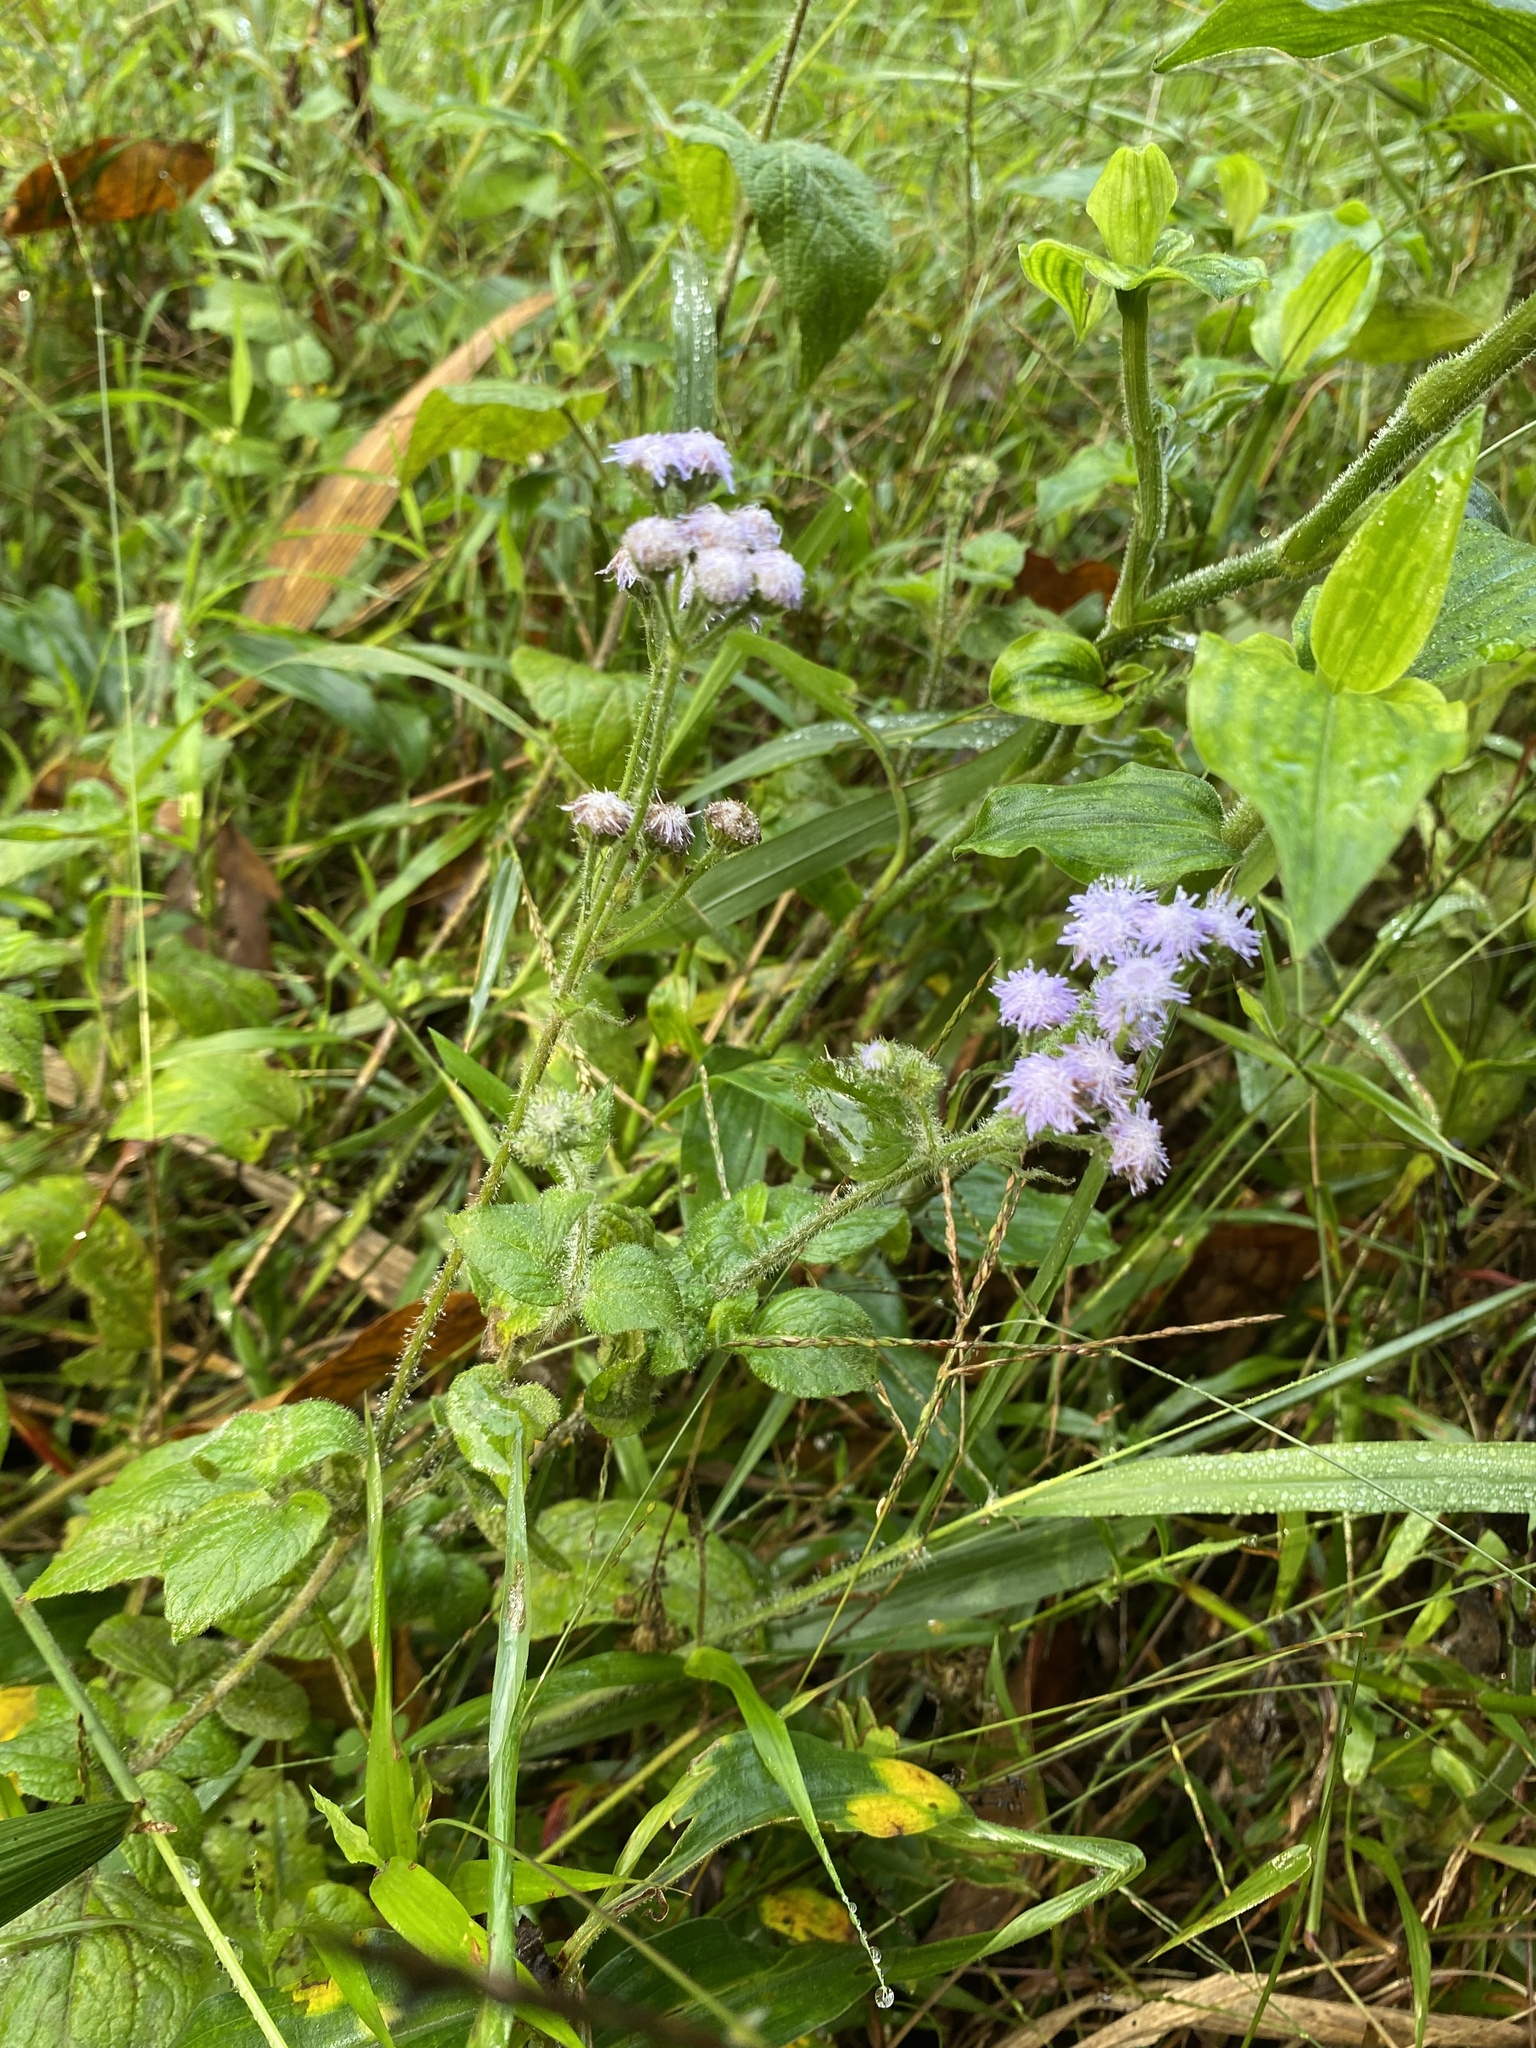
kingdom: Plantae
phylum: Tracheophyta
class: Magnoliopsida
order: Asterales
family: Asteraceae
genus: Ageratum
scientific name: Ageratum houstonianum
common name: Bluemink
